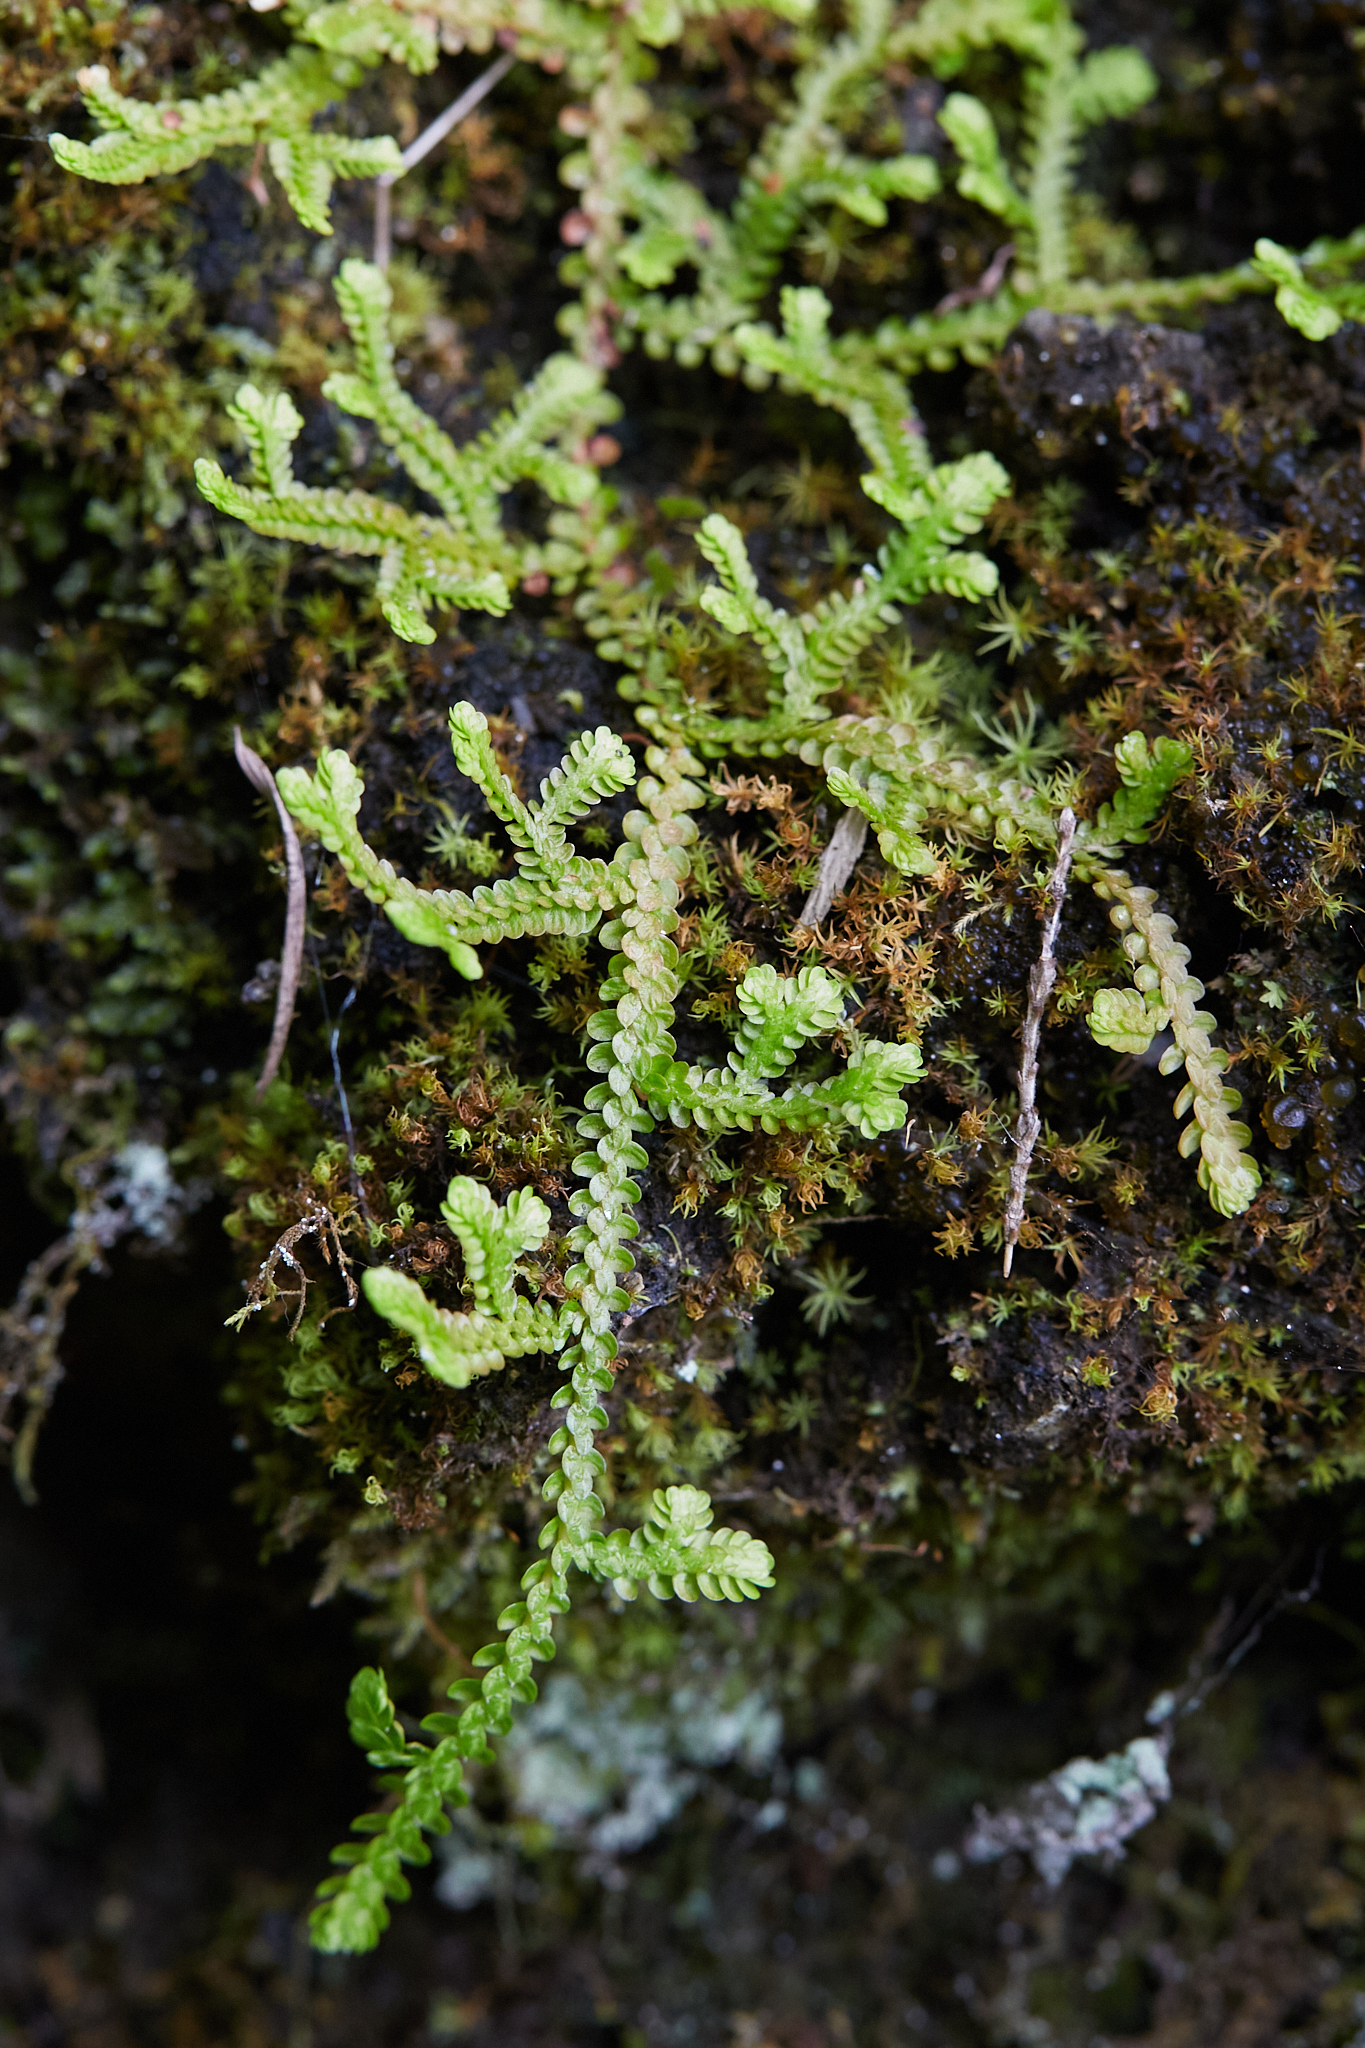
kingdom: Plantae
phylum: Tracheophyta
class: Lycopodiopsida
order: Selaginellales
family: Selaginellaceae
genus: Selaginella
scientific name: Selaginella douglasii
